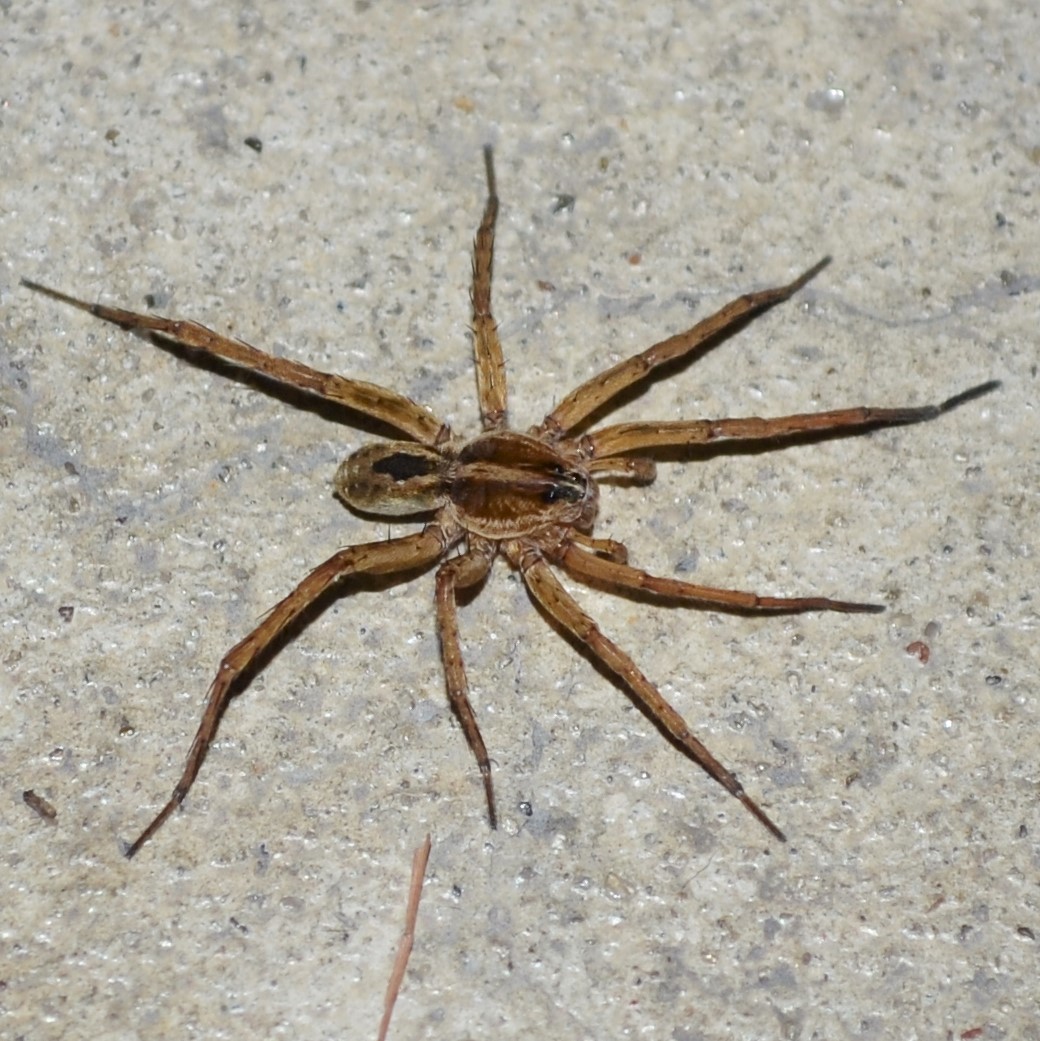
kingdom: Animalia
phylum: Arthropoda
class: Arachnida
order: Araneae
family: Lycosidae
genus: Tigrosa
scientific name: Tigrosa annexa
